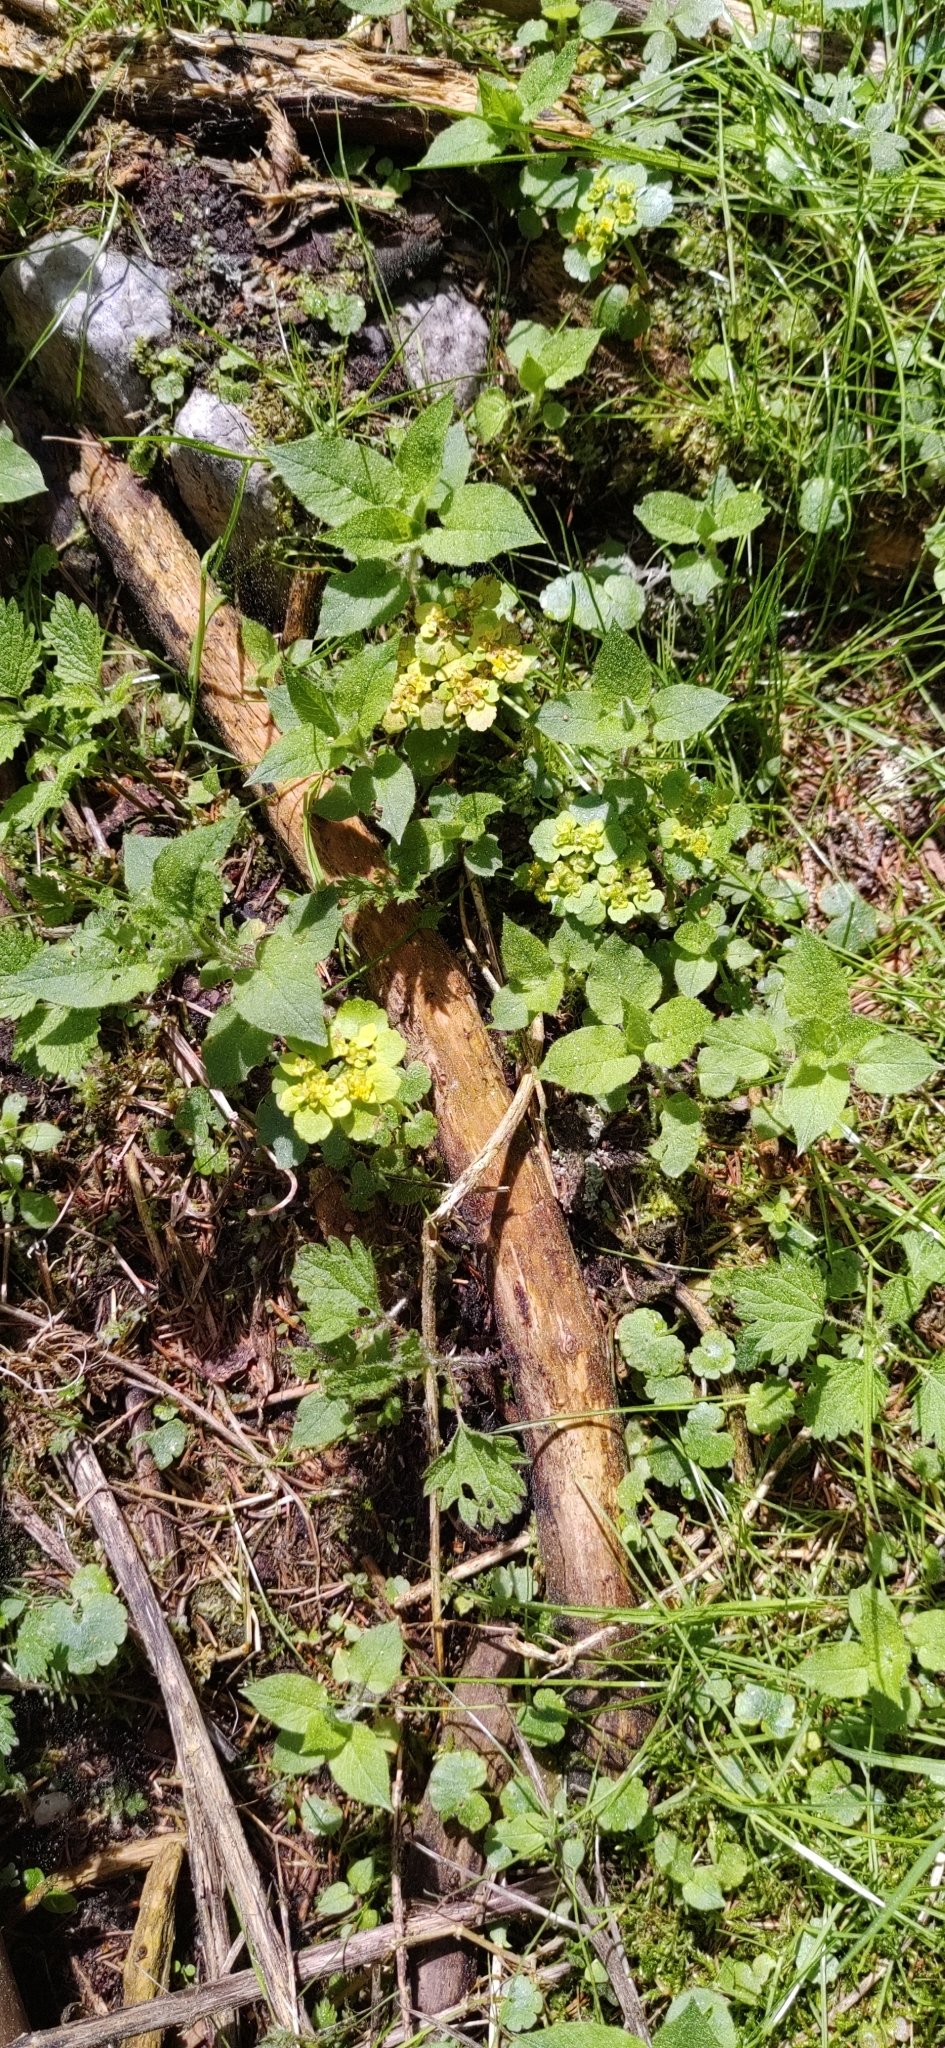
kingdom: Plantae
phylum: Tracheophyta
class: Magnoliopsida
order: Saxifragales
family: Saxifragaceae
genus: Chrysosplenium
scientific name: Chrysosplenium alternifolium
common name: Alternate-leaved golden-saxifrage
